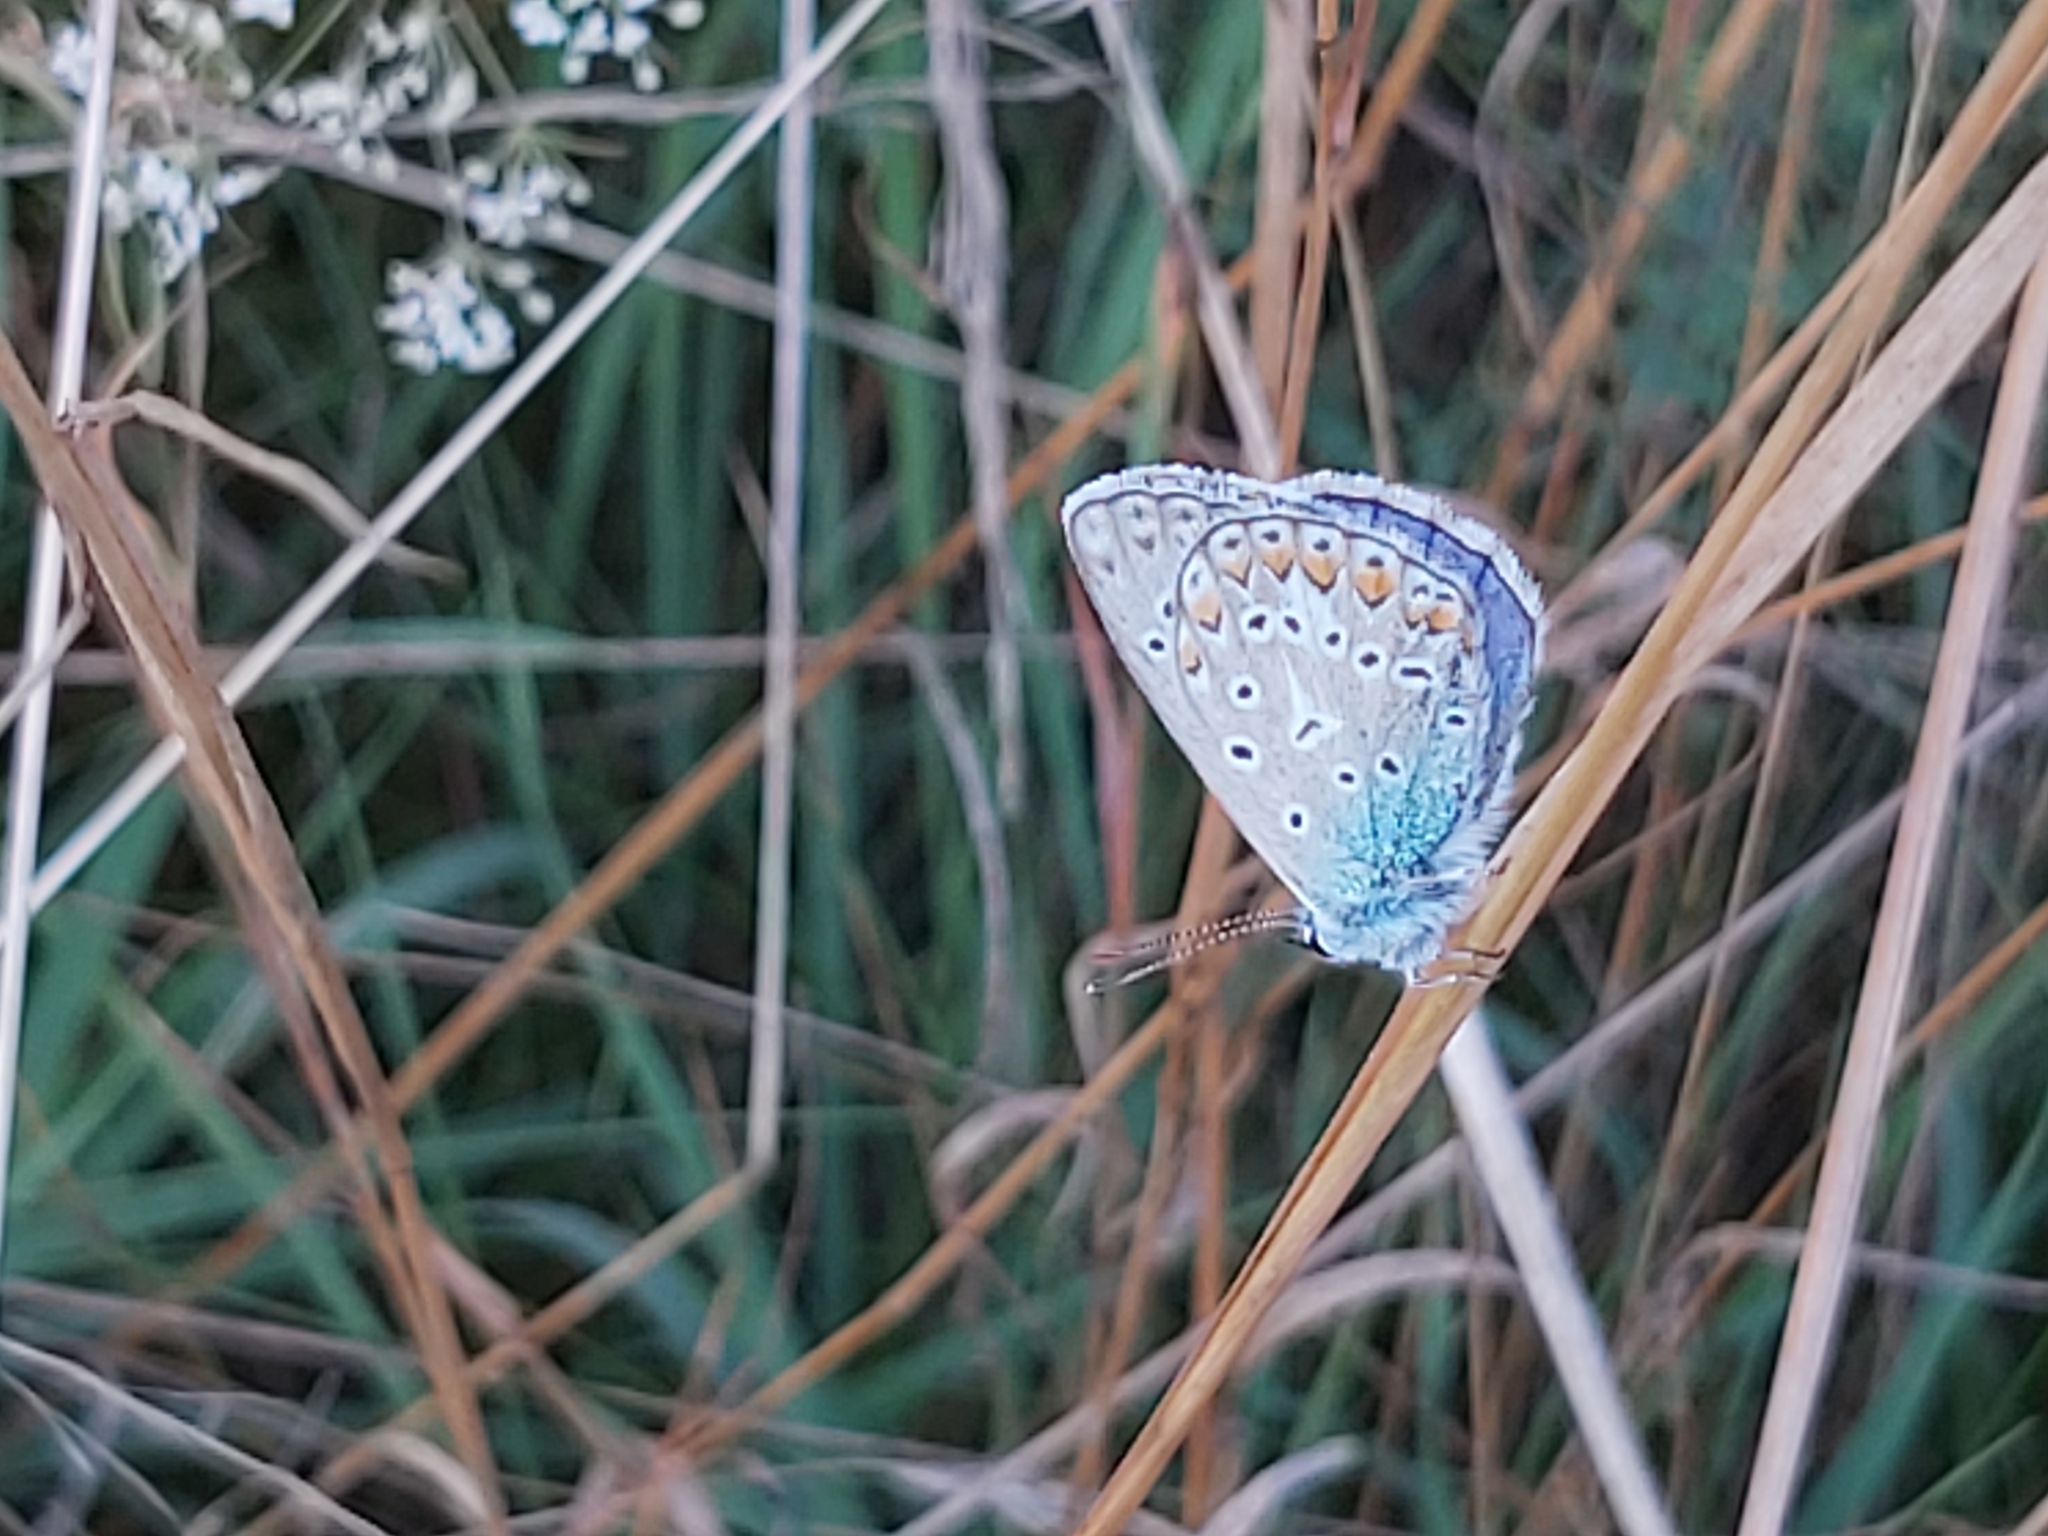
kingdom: Animalia
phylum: Arthropoda
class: Insecta
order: Lepidoptera
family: Lycaenidae
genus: Polyommatus
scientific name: Polyommatus icarus
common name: Common blue
